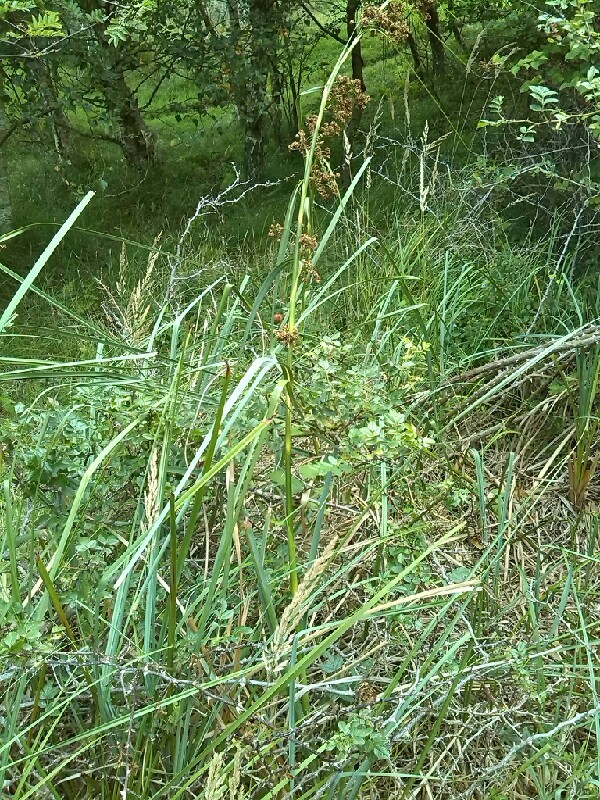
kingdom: Plantae
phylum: Tracheophyta
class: Liliopsida
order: Poales
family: Cyperaceae
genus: Cladium
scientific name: Cladium mariscus
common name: Great fen-sedge
